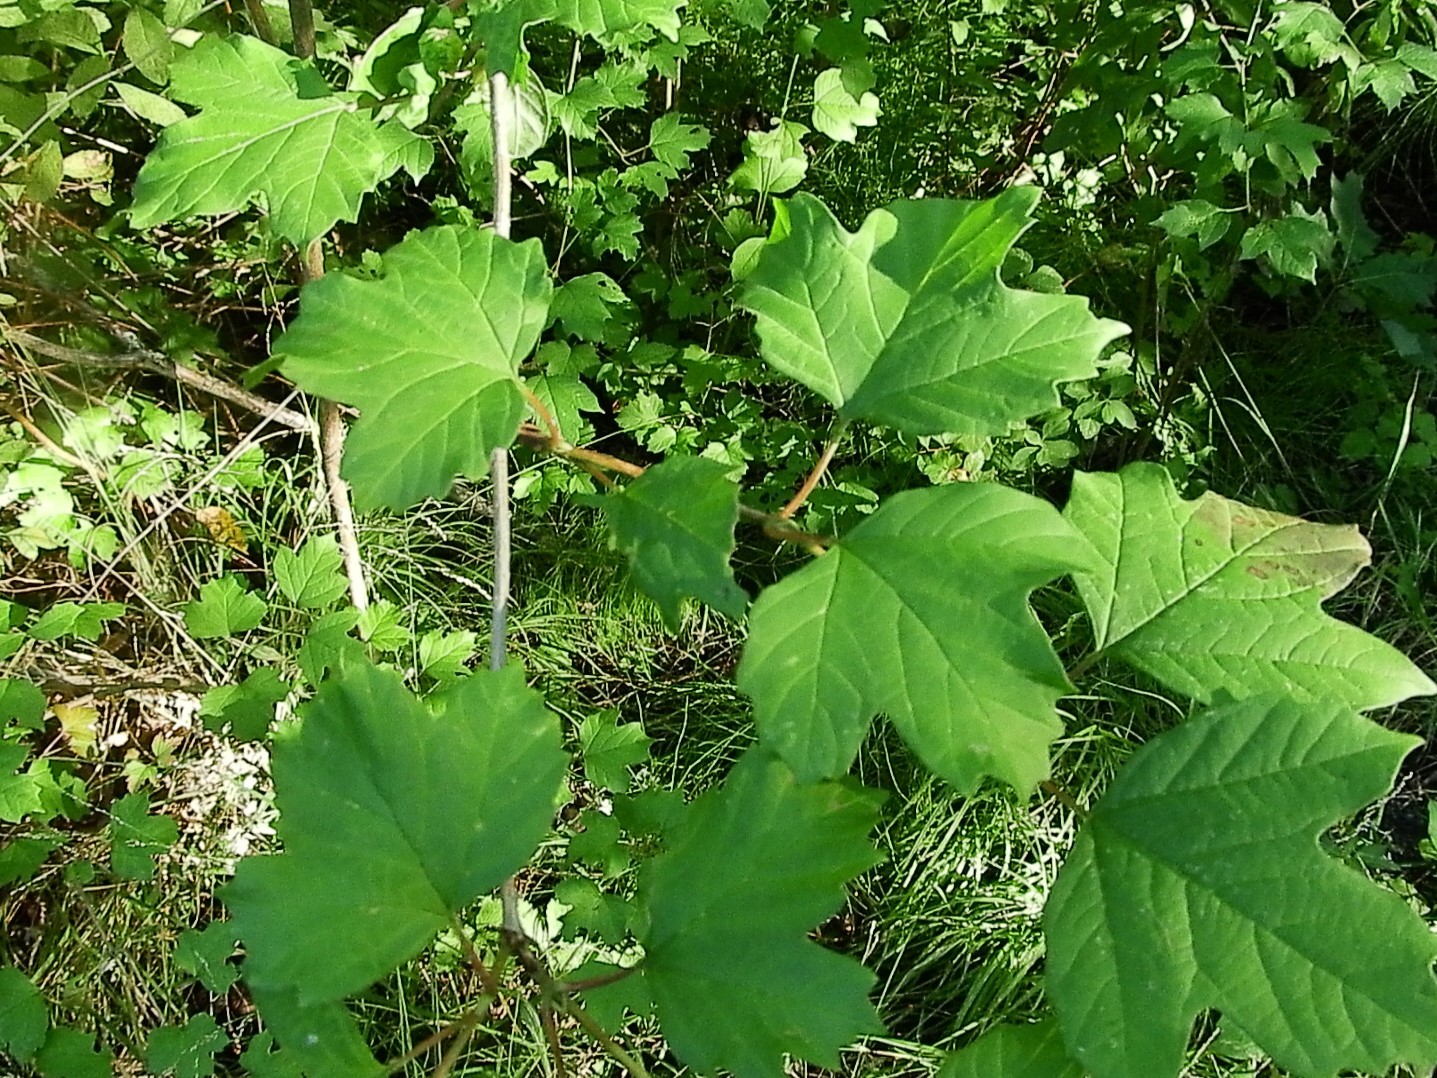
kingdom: Plantae
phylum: Tracheophyta
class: Magnoliopsida
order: Dipsacales
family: Viburnaceae
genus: Viburnum
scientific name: Viburnum opulus
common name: Guelder-rose
